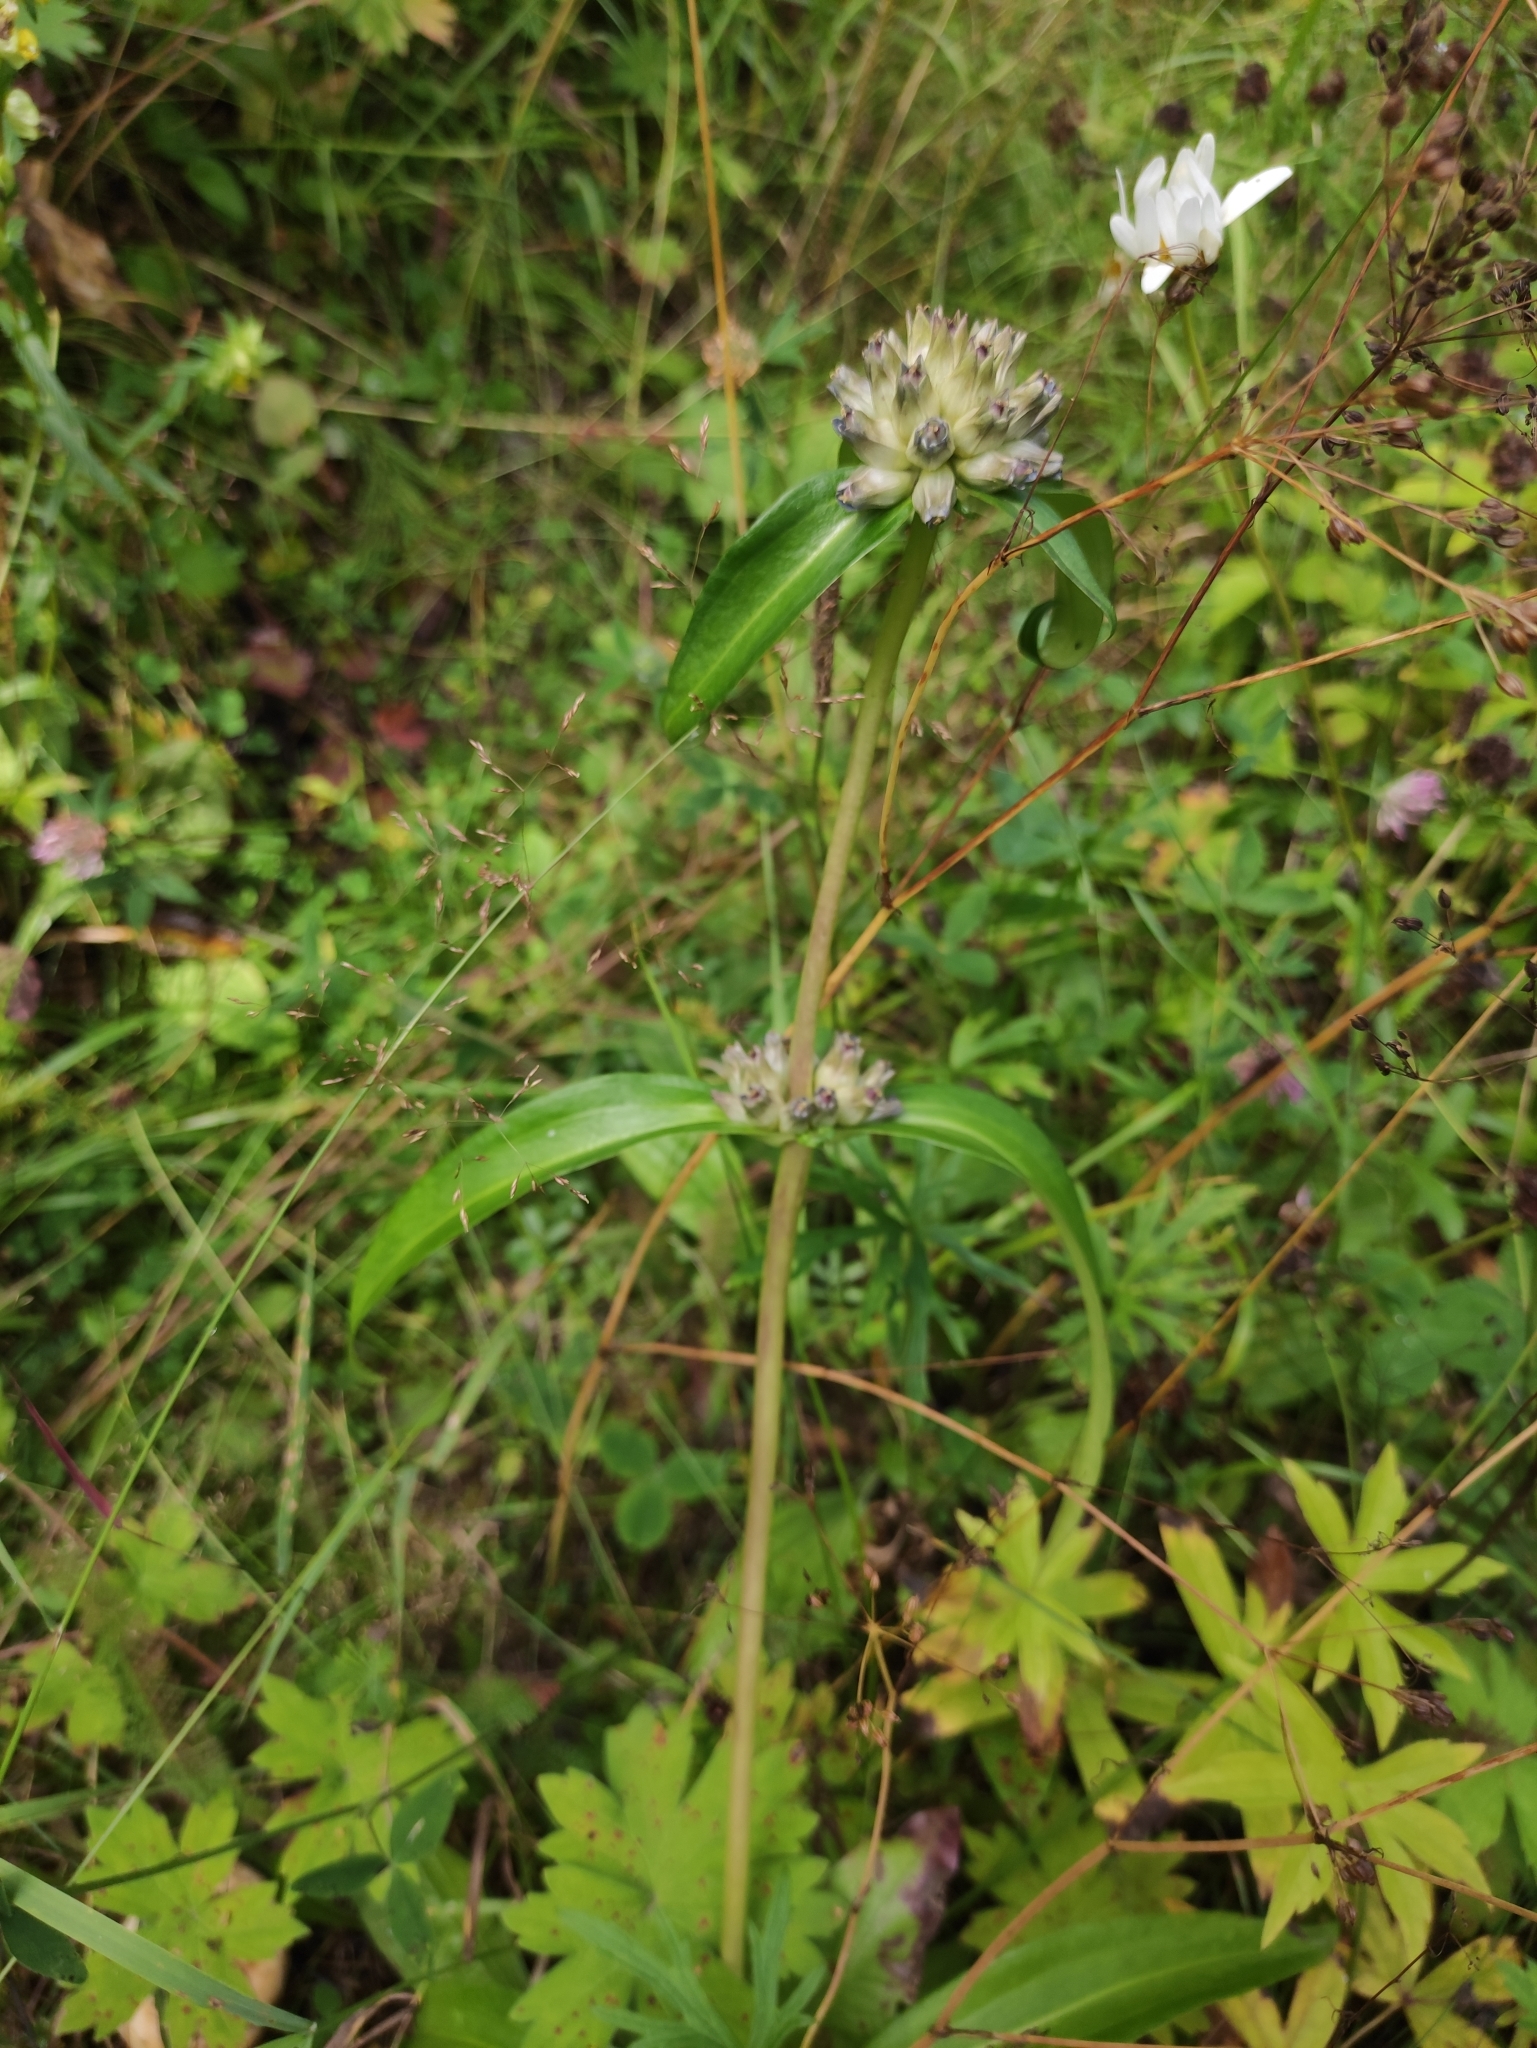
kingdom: Plantae
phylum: Tracheophyta
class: Magnoliopsida
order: Gentianales
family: Gentianaceae
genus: Gentiana
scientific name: Gentiana macrophylla
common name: Large-leaf gentian
